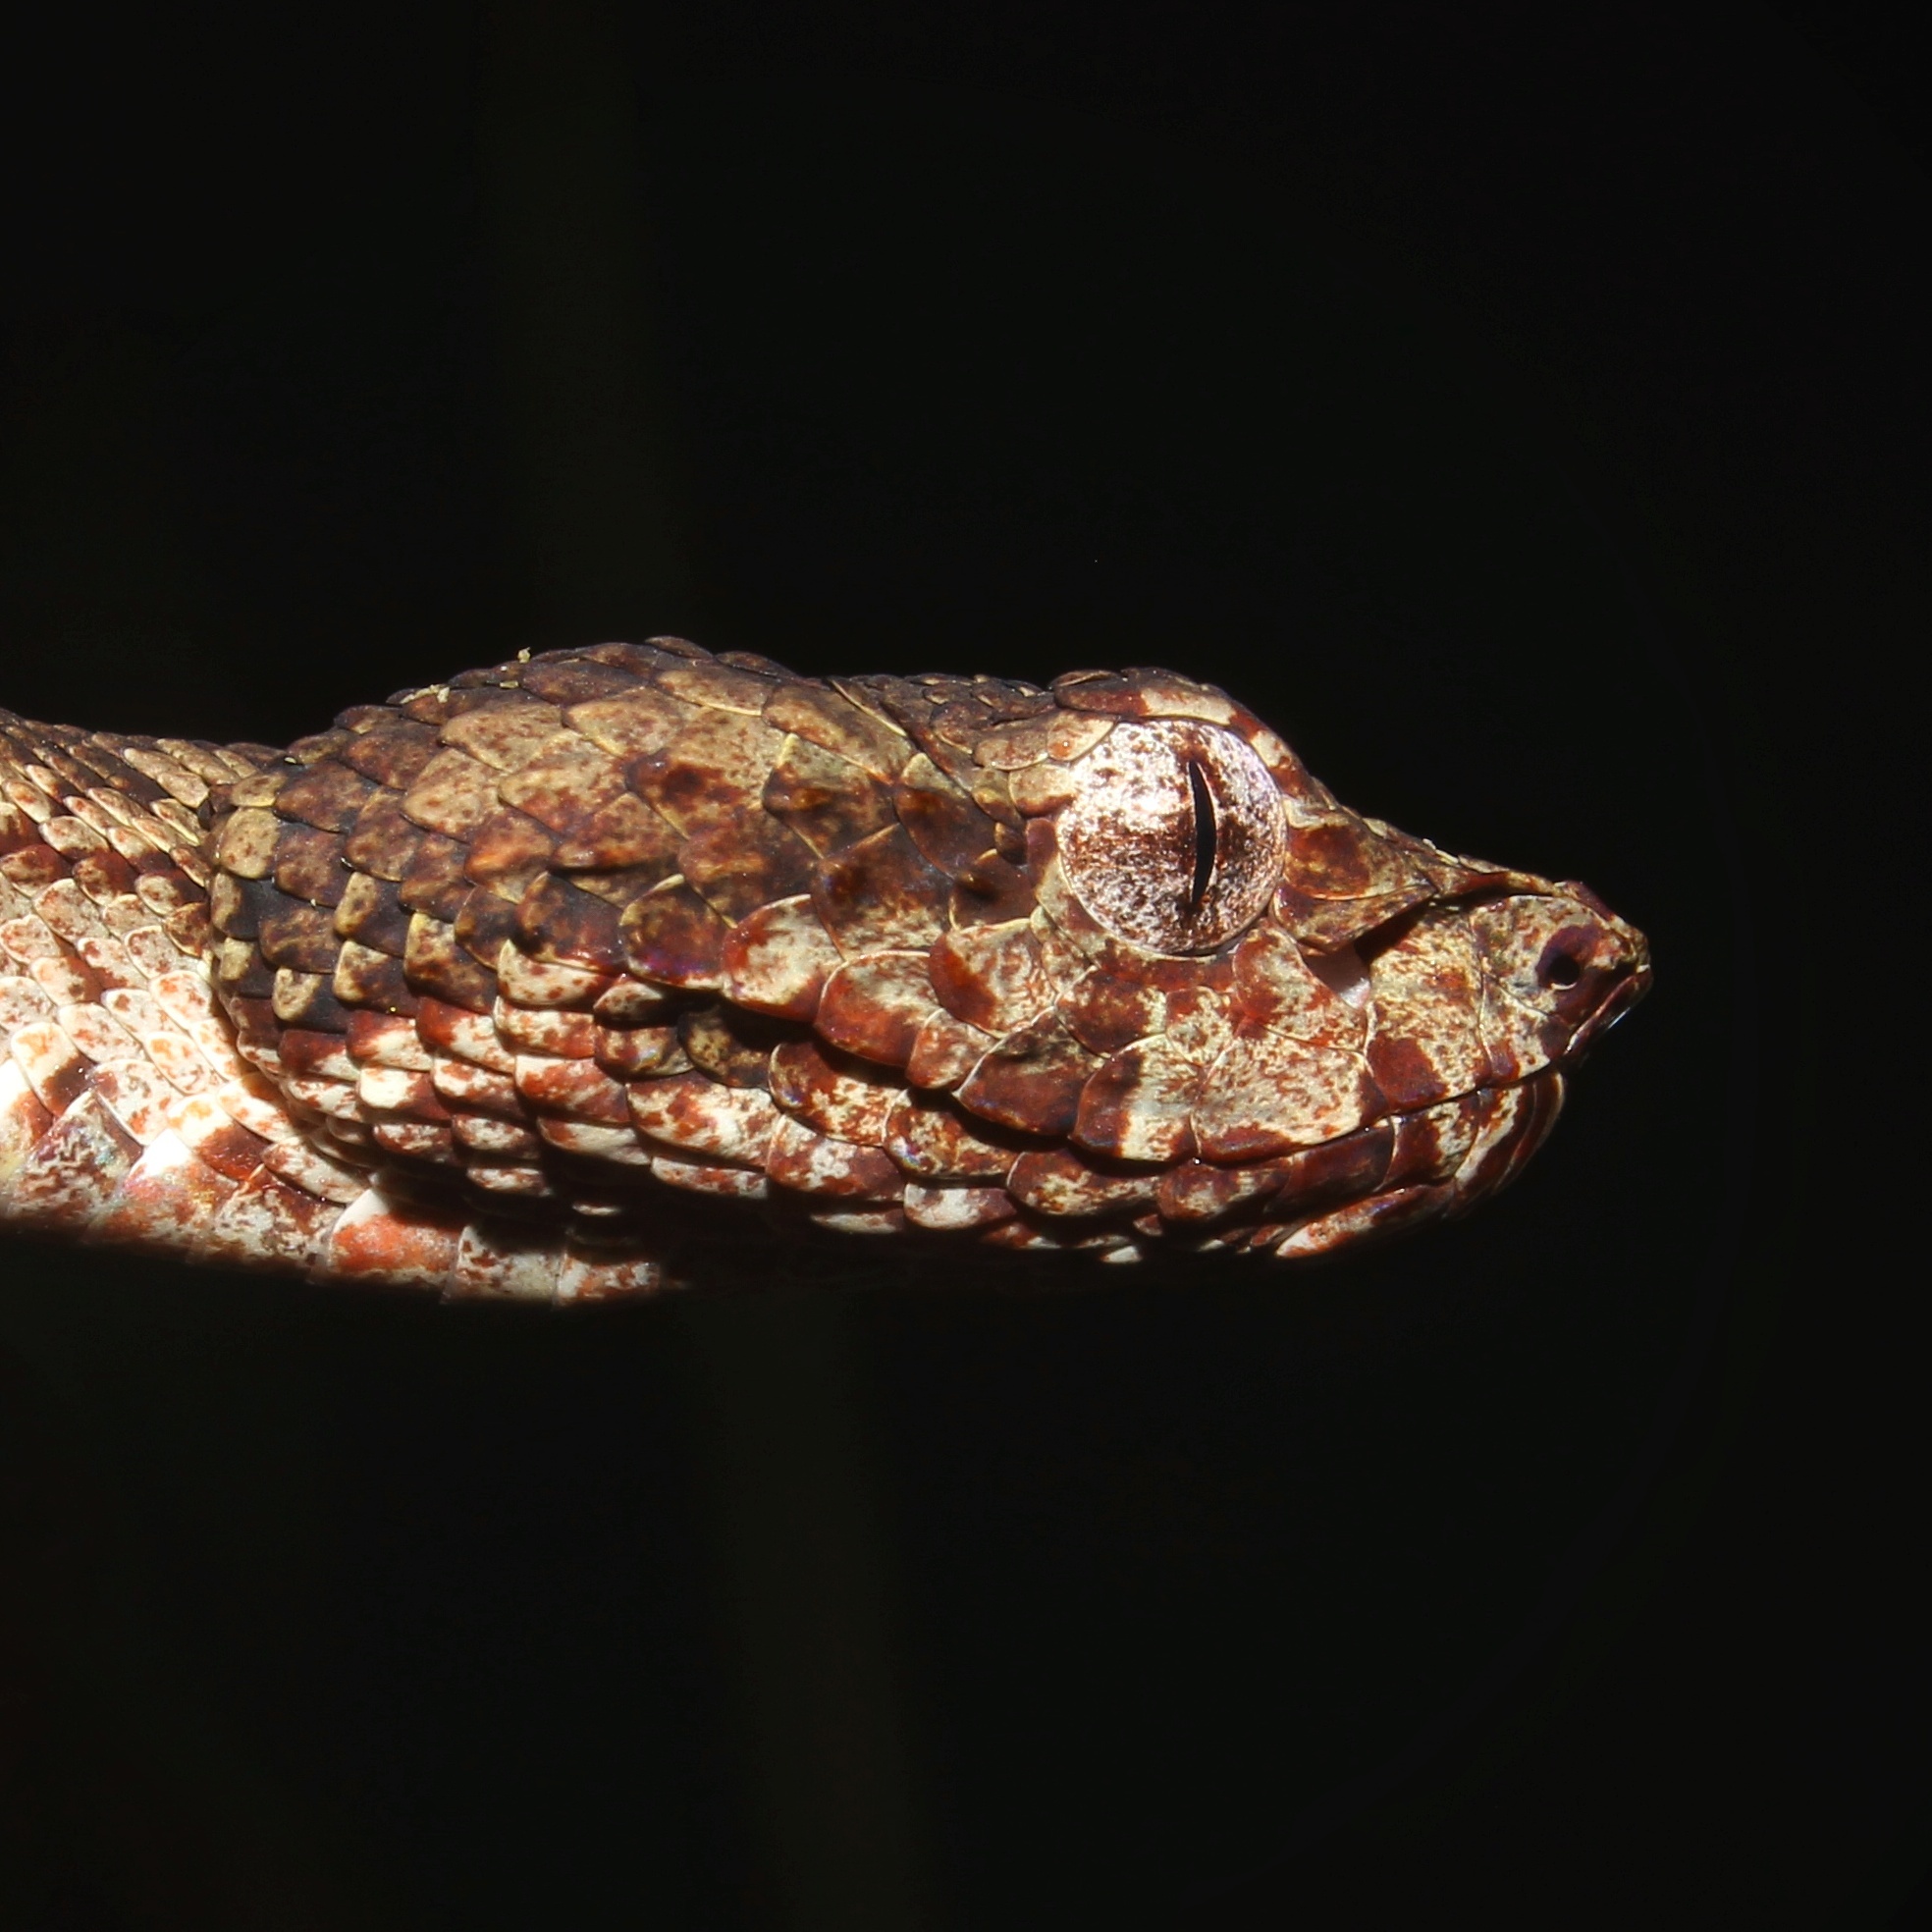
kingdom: Animalia
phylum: Chordata
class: Squamata
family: Viperidae
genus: Craspedocephalus
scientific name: Craspedocephalus anamallensis
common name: Malabarian pit viper
